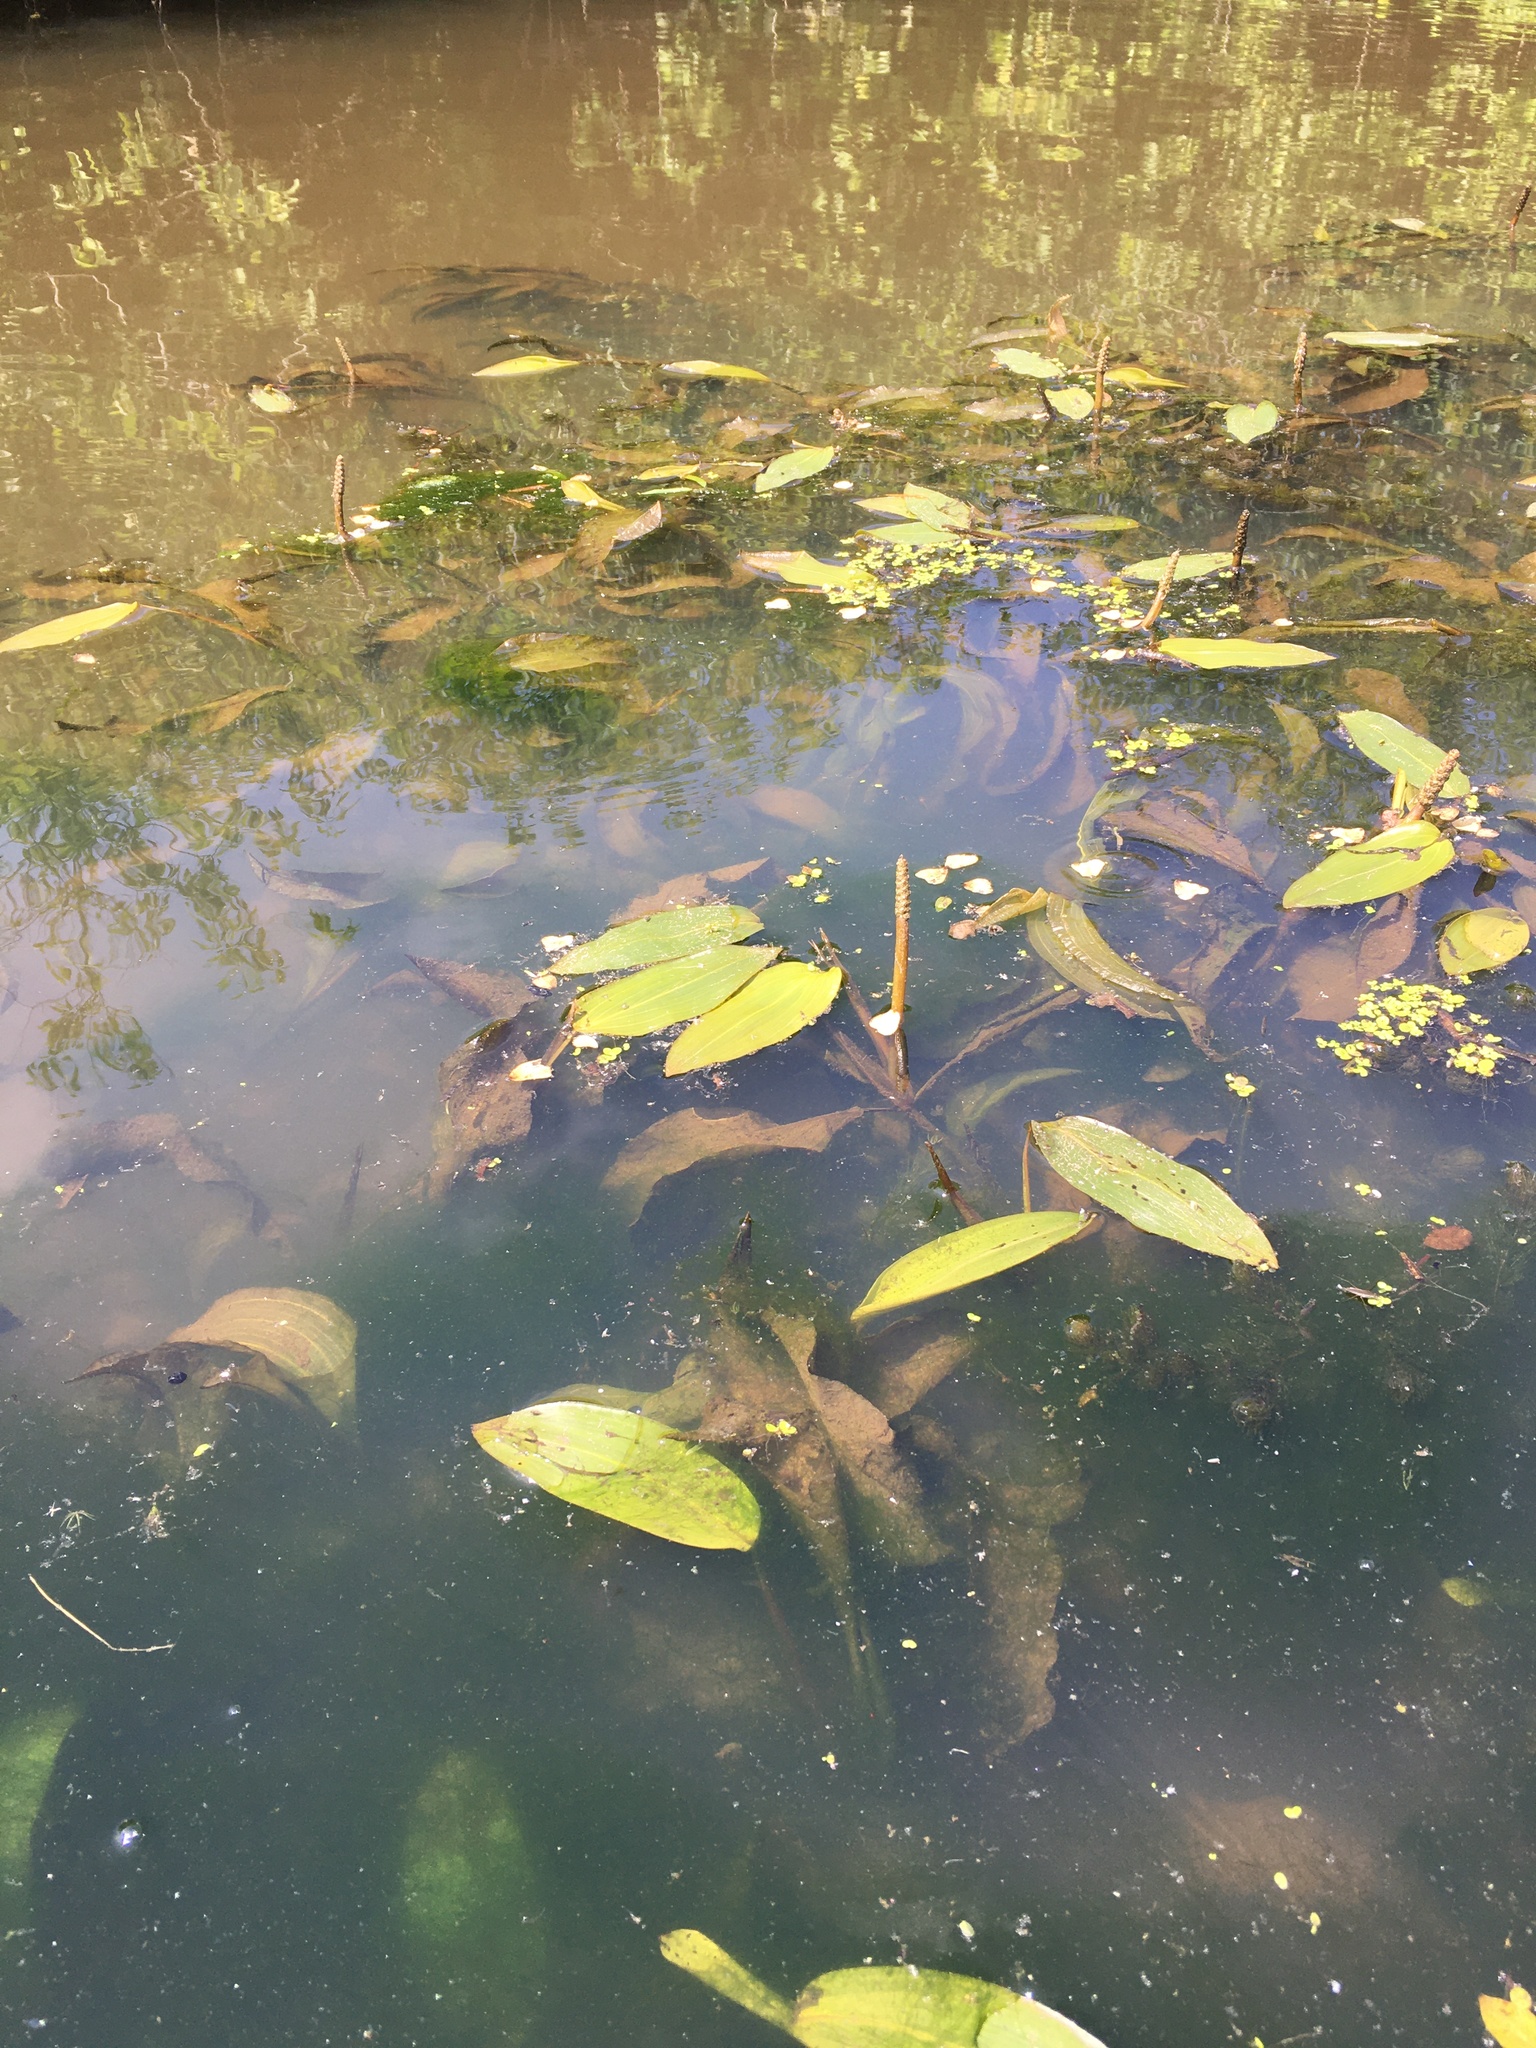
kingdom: Plantae
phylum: Tracheophyta
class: Liliopsida
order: Alismatales
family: Potamogetonaceae
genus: Potamogeton
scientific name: Potamogeton amplifolius
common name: Broad-leaved pondweed
